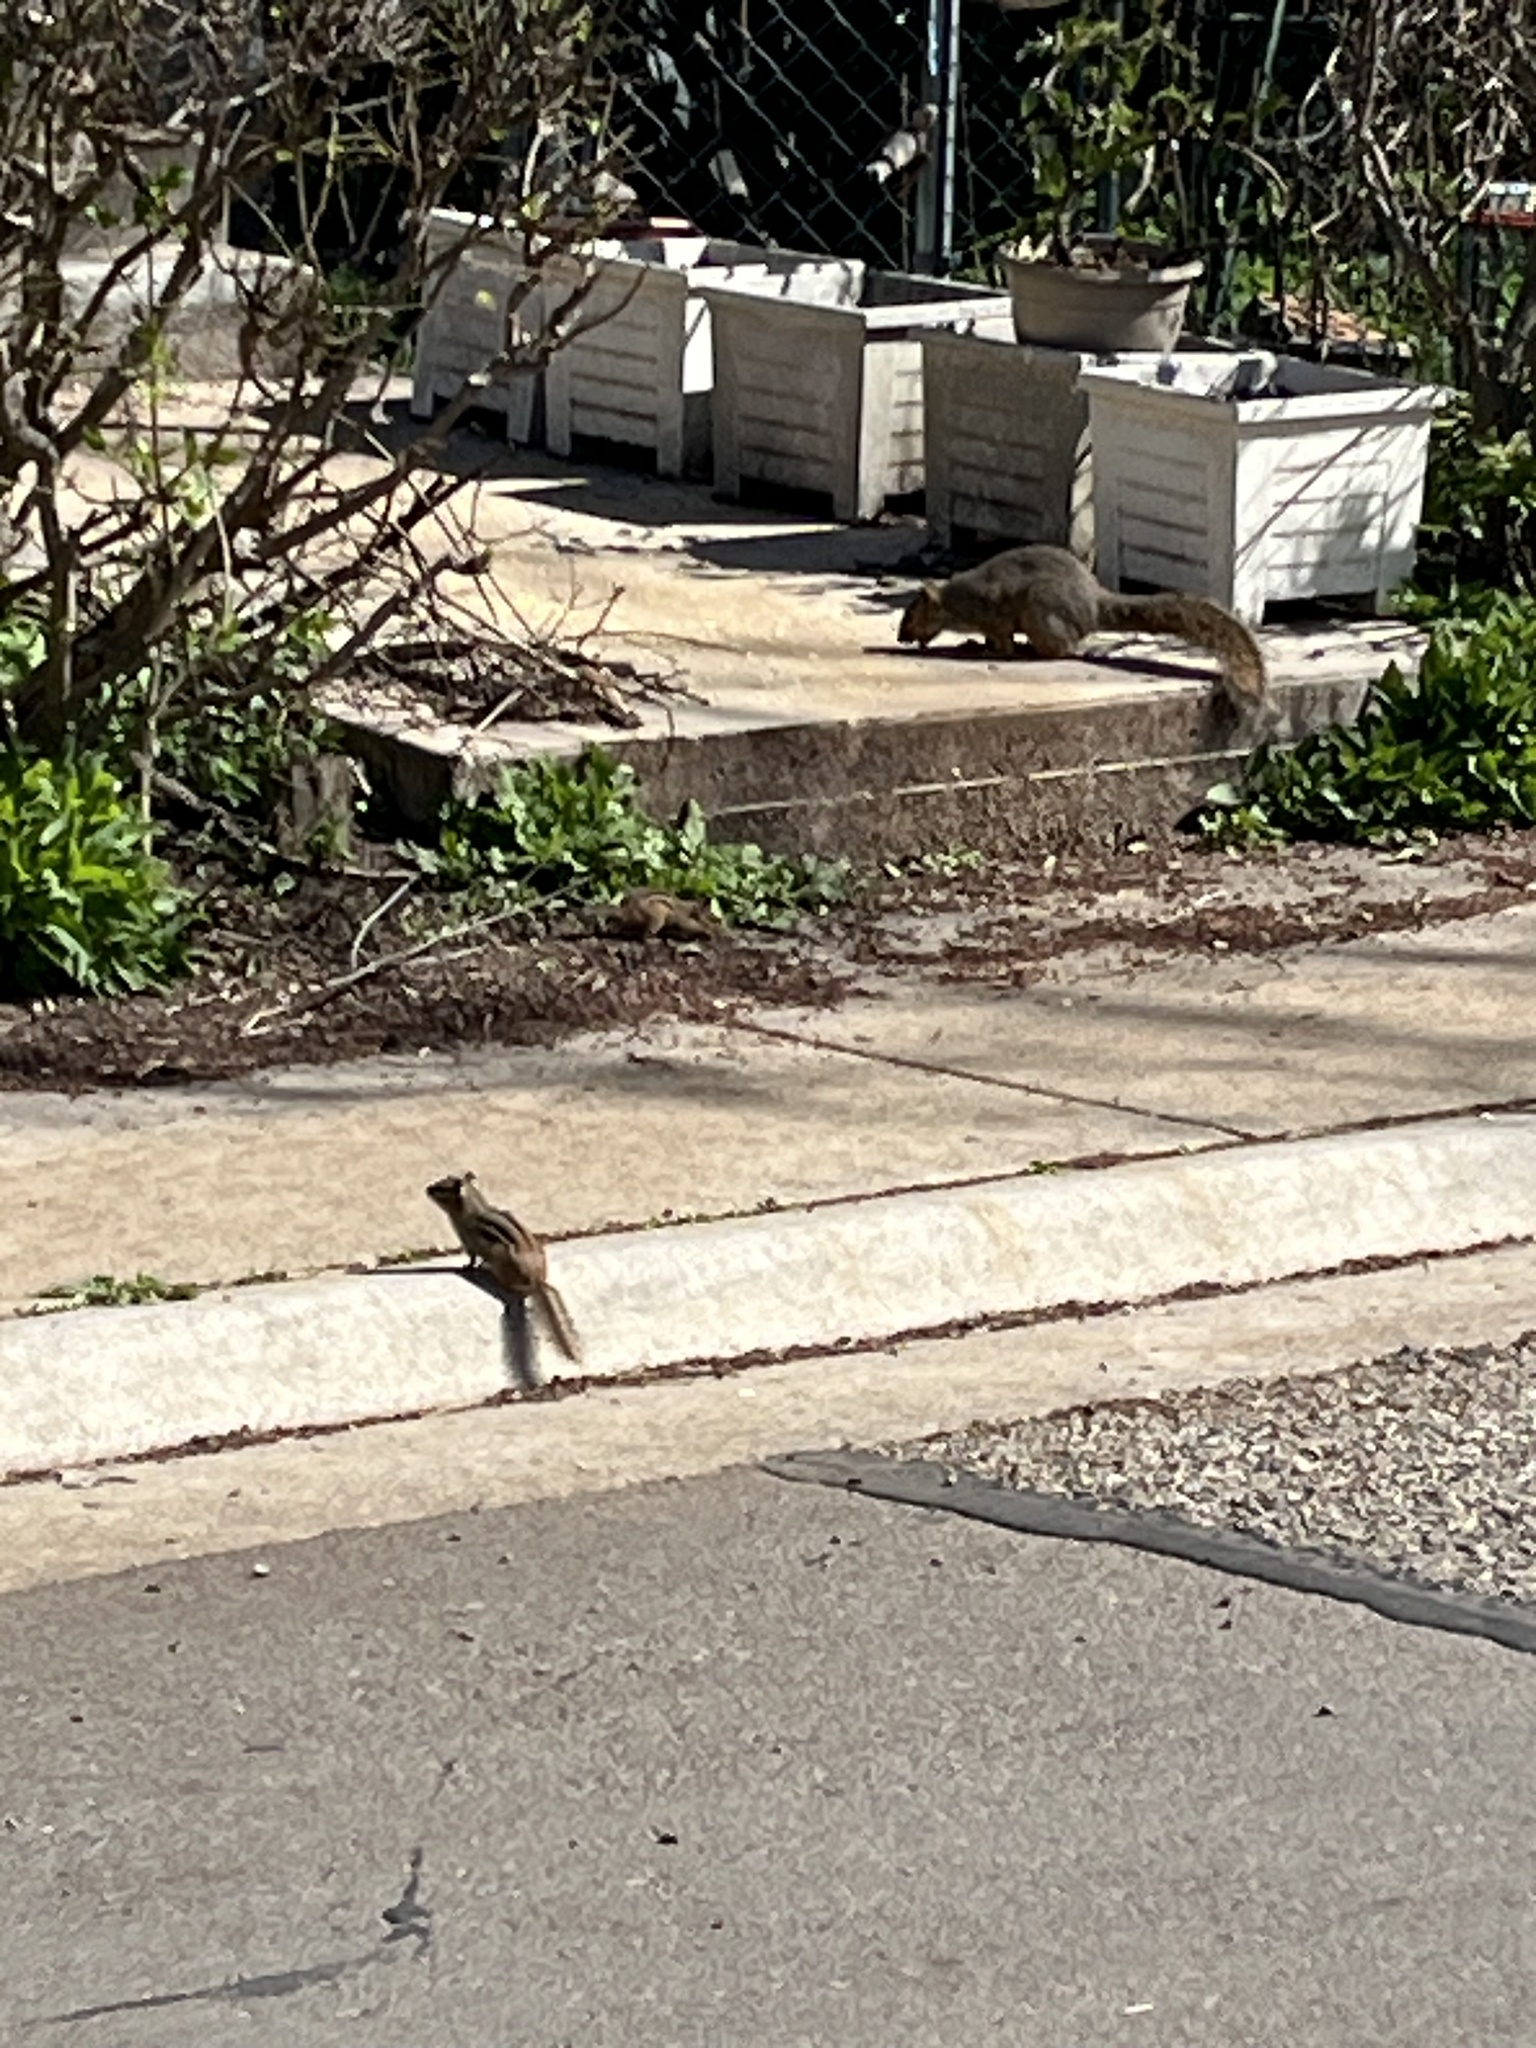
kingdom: Animalia
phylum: Chordata
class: Mammalia
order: Rodentia
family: Sciuridae
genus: Tamias
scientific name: Tamias striatus
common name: Eastern chipmunk
